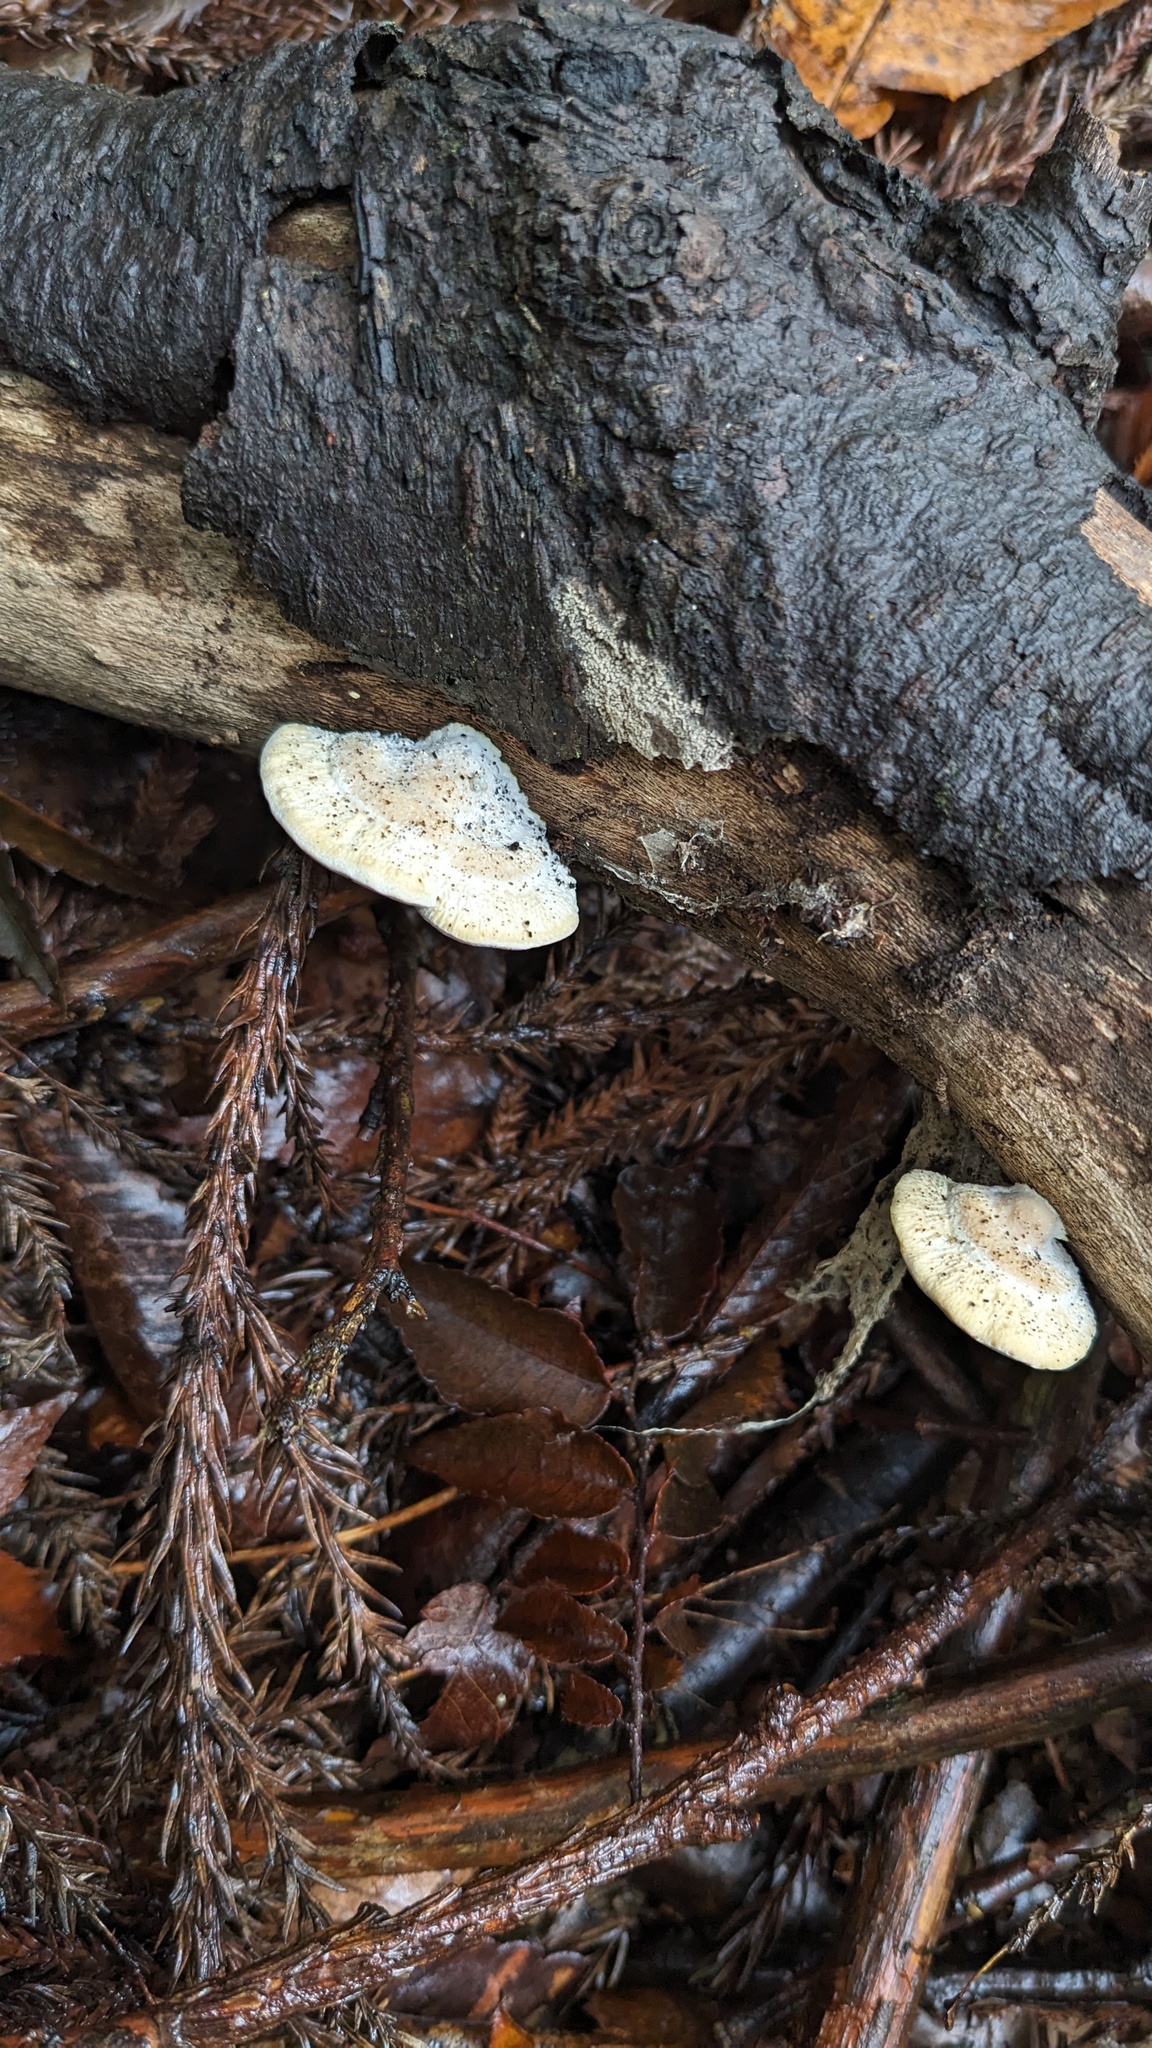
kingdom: Fungi
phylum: Basidiomycota
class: Agaricomycetes
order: Polyporales
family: Polyporaceae
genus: Truncospora
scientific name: Truncospora ochroleuca
